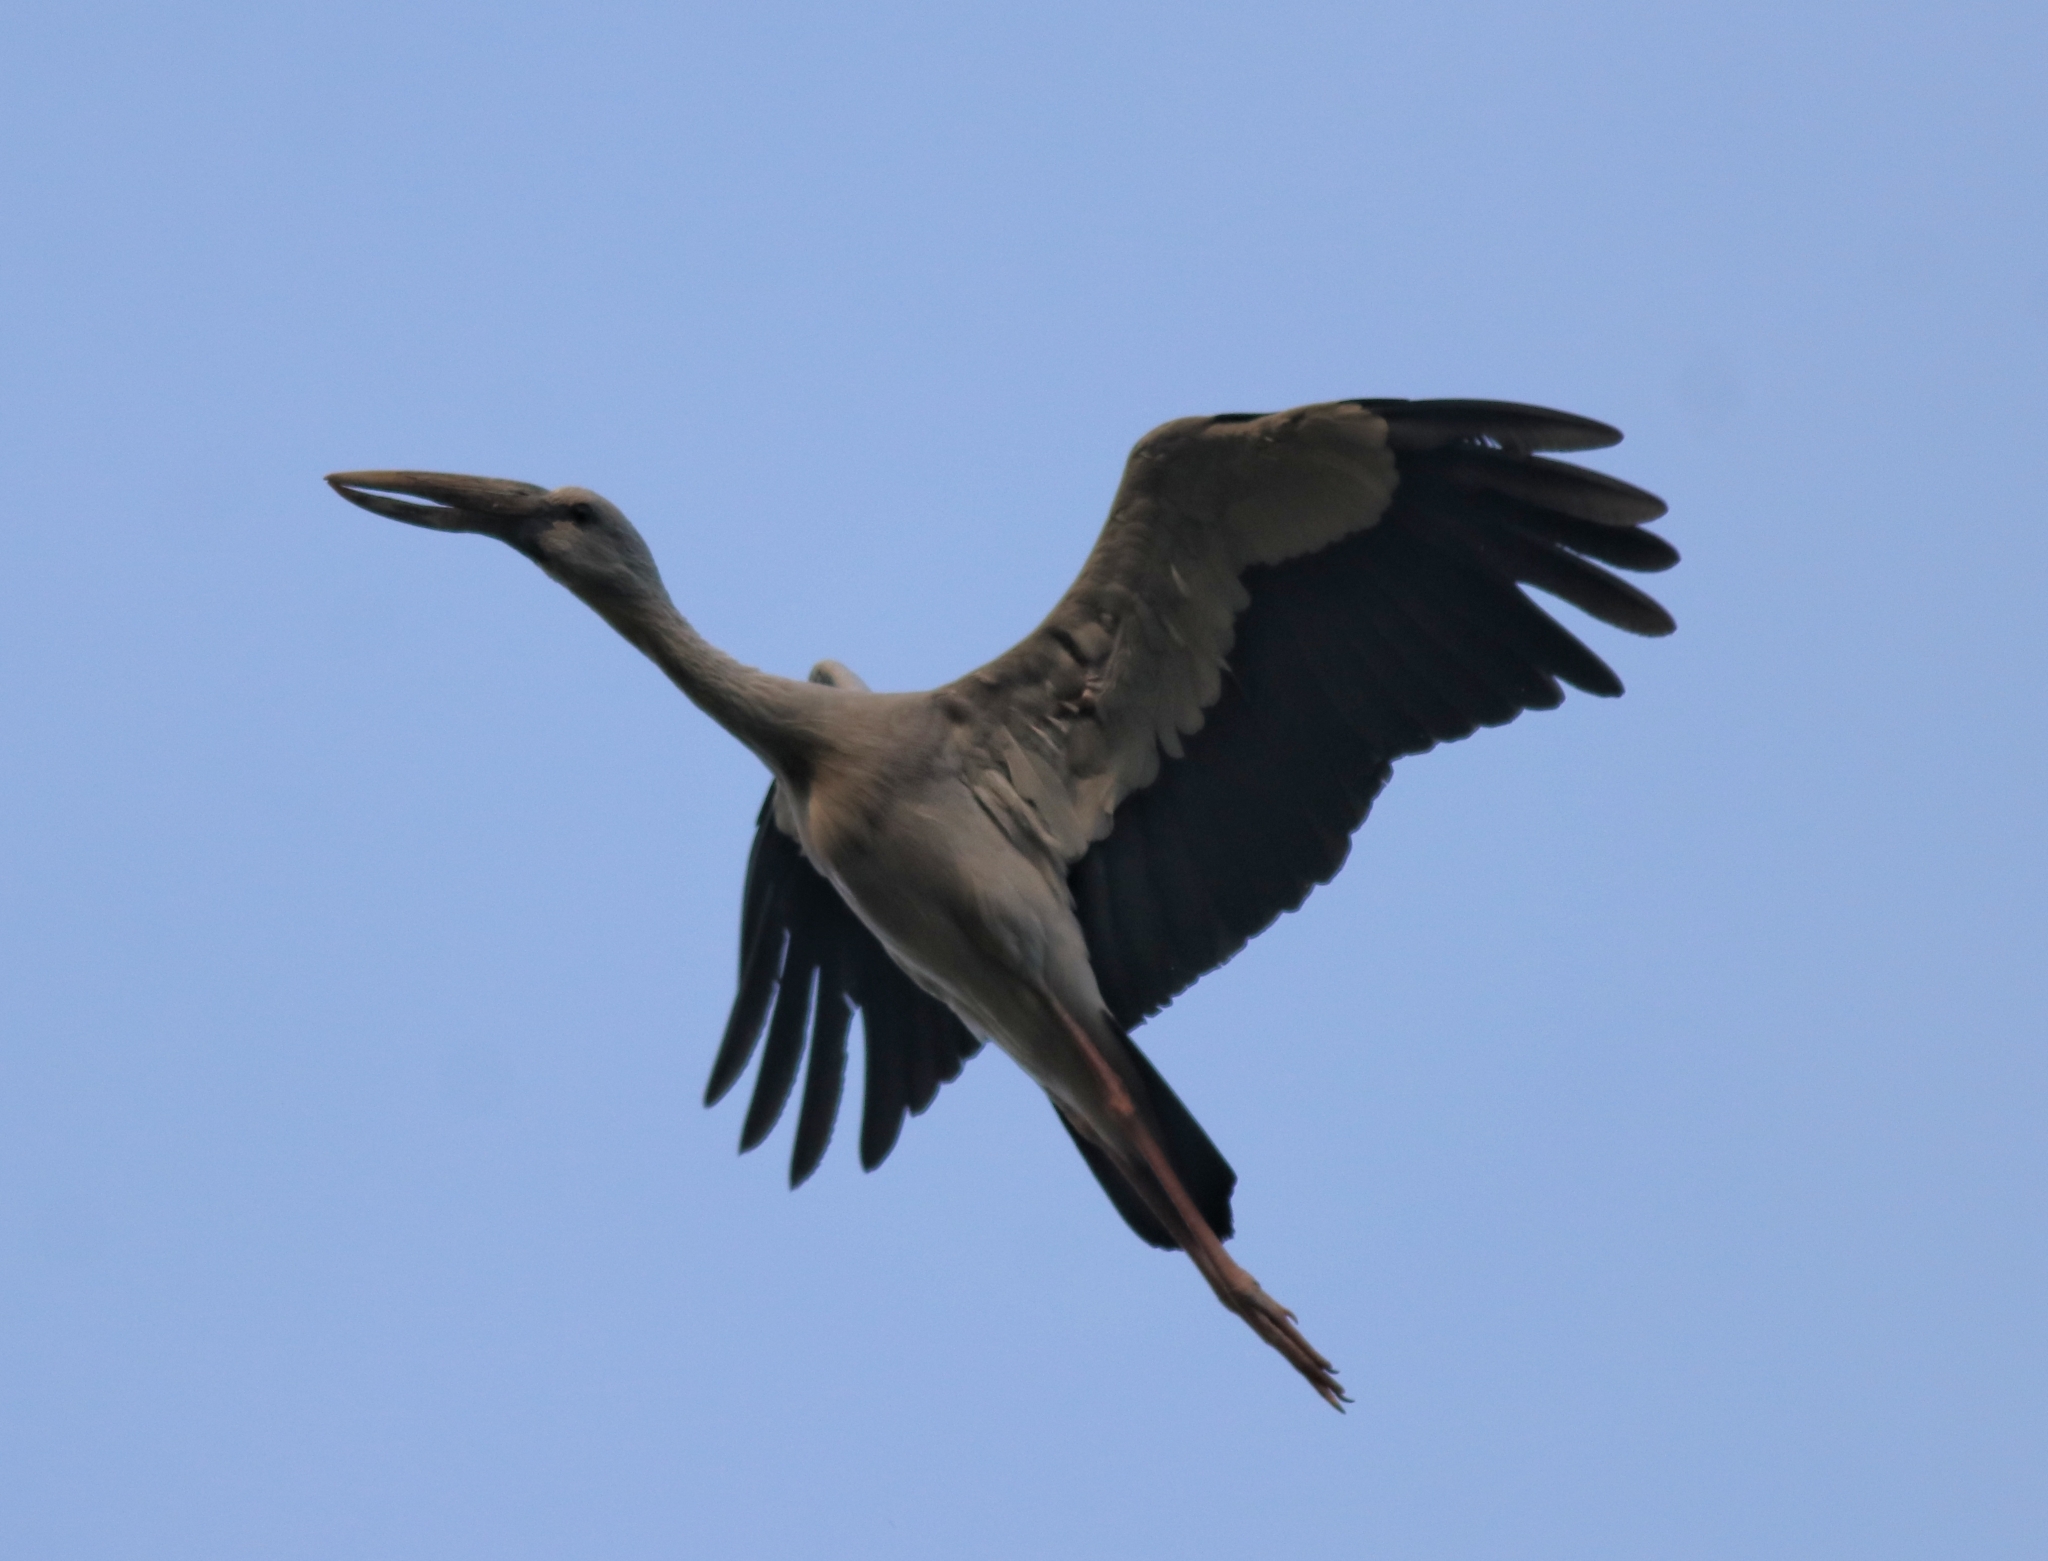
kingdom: Animalia
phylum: Chordata
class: Aves
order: Ciconiiformes
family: Ciconiidae
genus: Anastomus
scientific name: Anastomus oscitans
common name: Asian openbill
